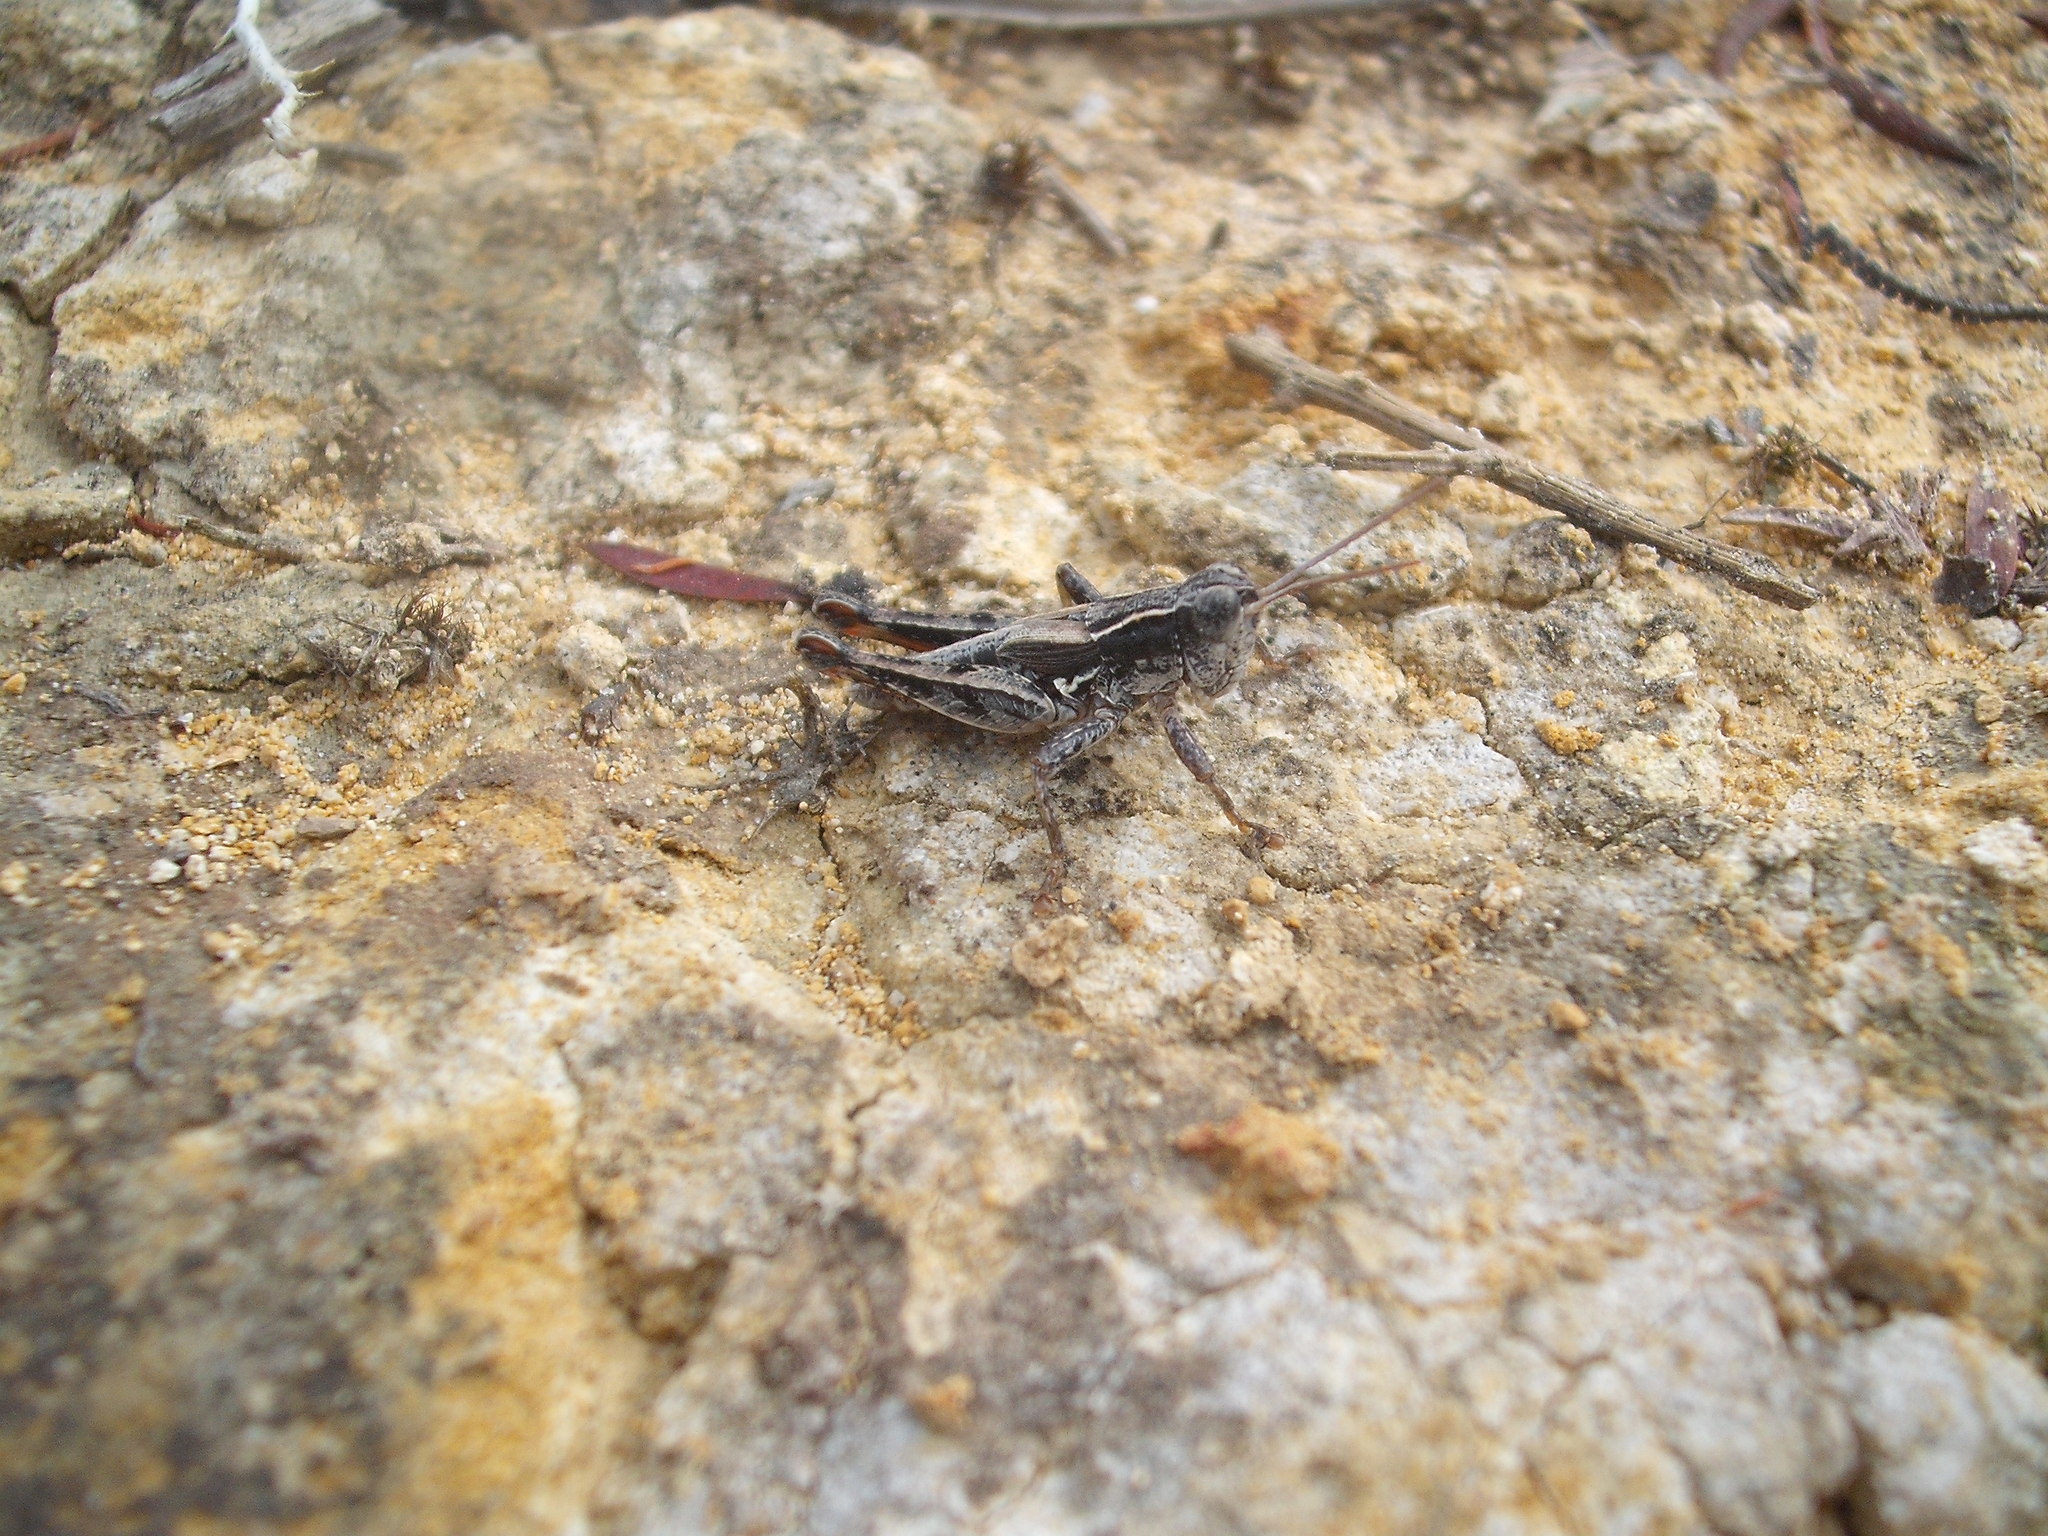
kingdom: Animalia
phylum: Arthropoda
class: Insecta
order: Orthoptera
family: Acrididae
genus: Phaulacridium
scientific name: Phaulacridium marginale
